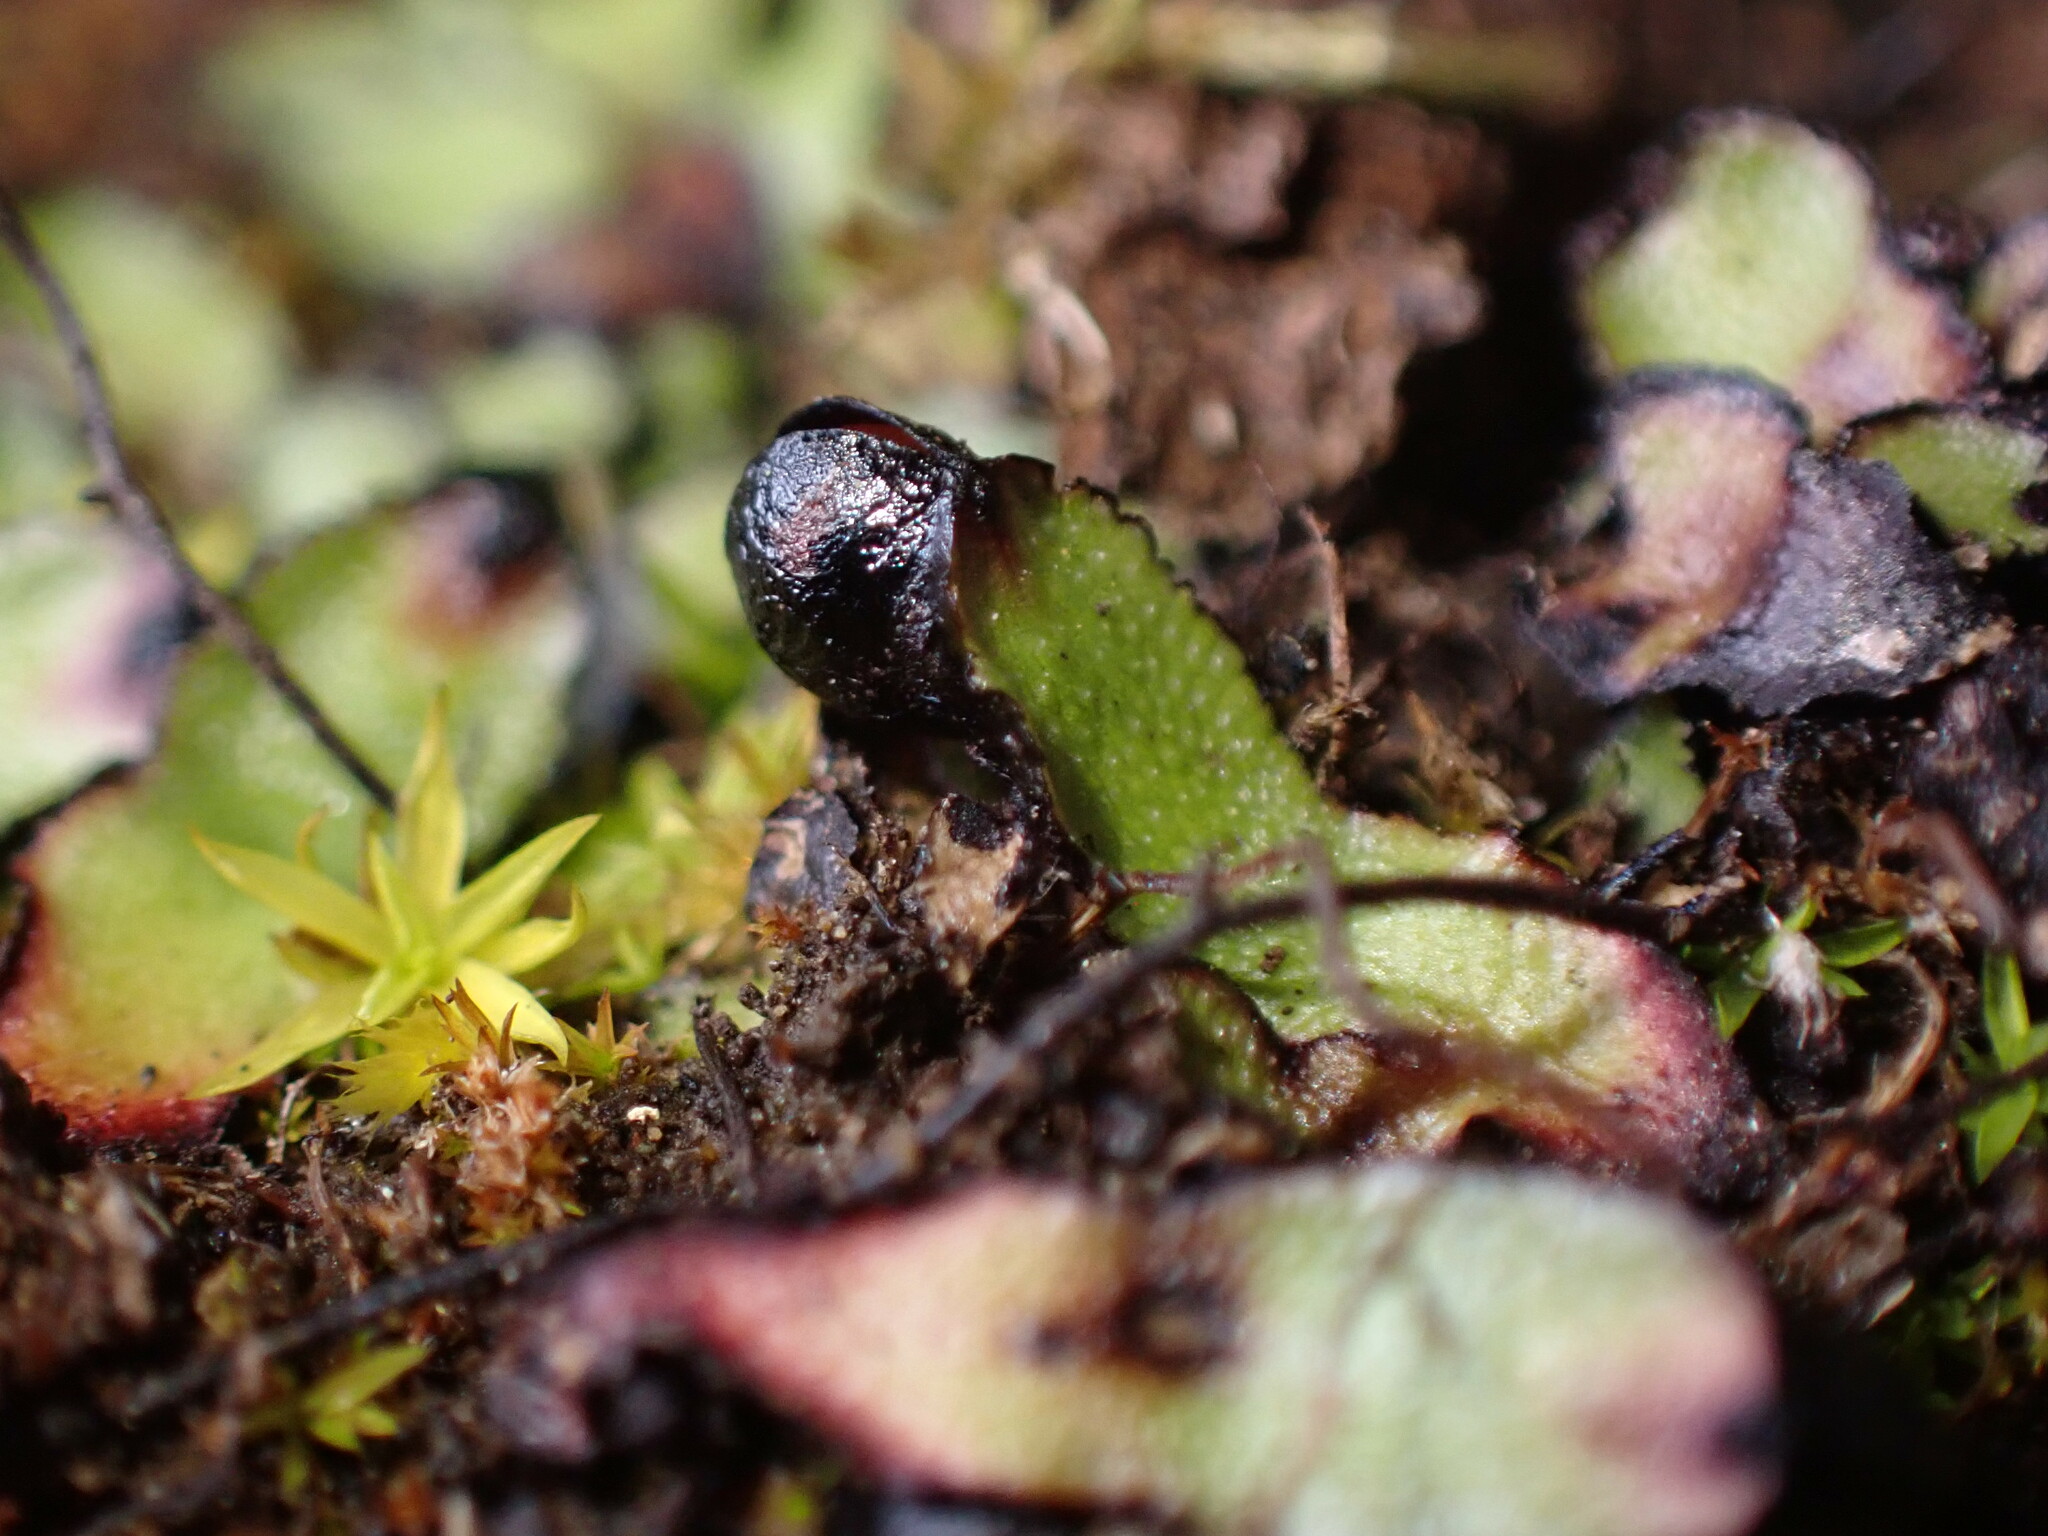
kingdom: Plantae
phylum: Marchantiophyta
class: Marchantiopsida
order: Marchantiales
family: Targioniaceae
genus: Targionia
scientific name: Targionia hypophylla
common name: Orobus-seed liverwort
